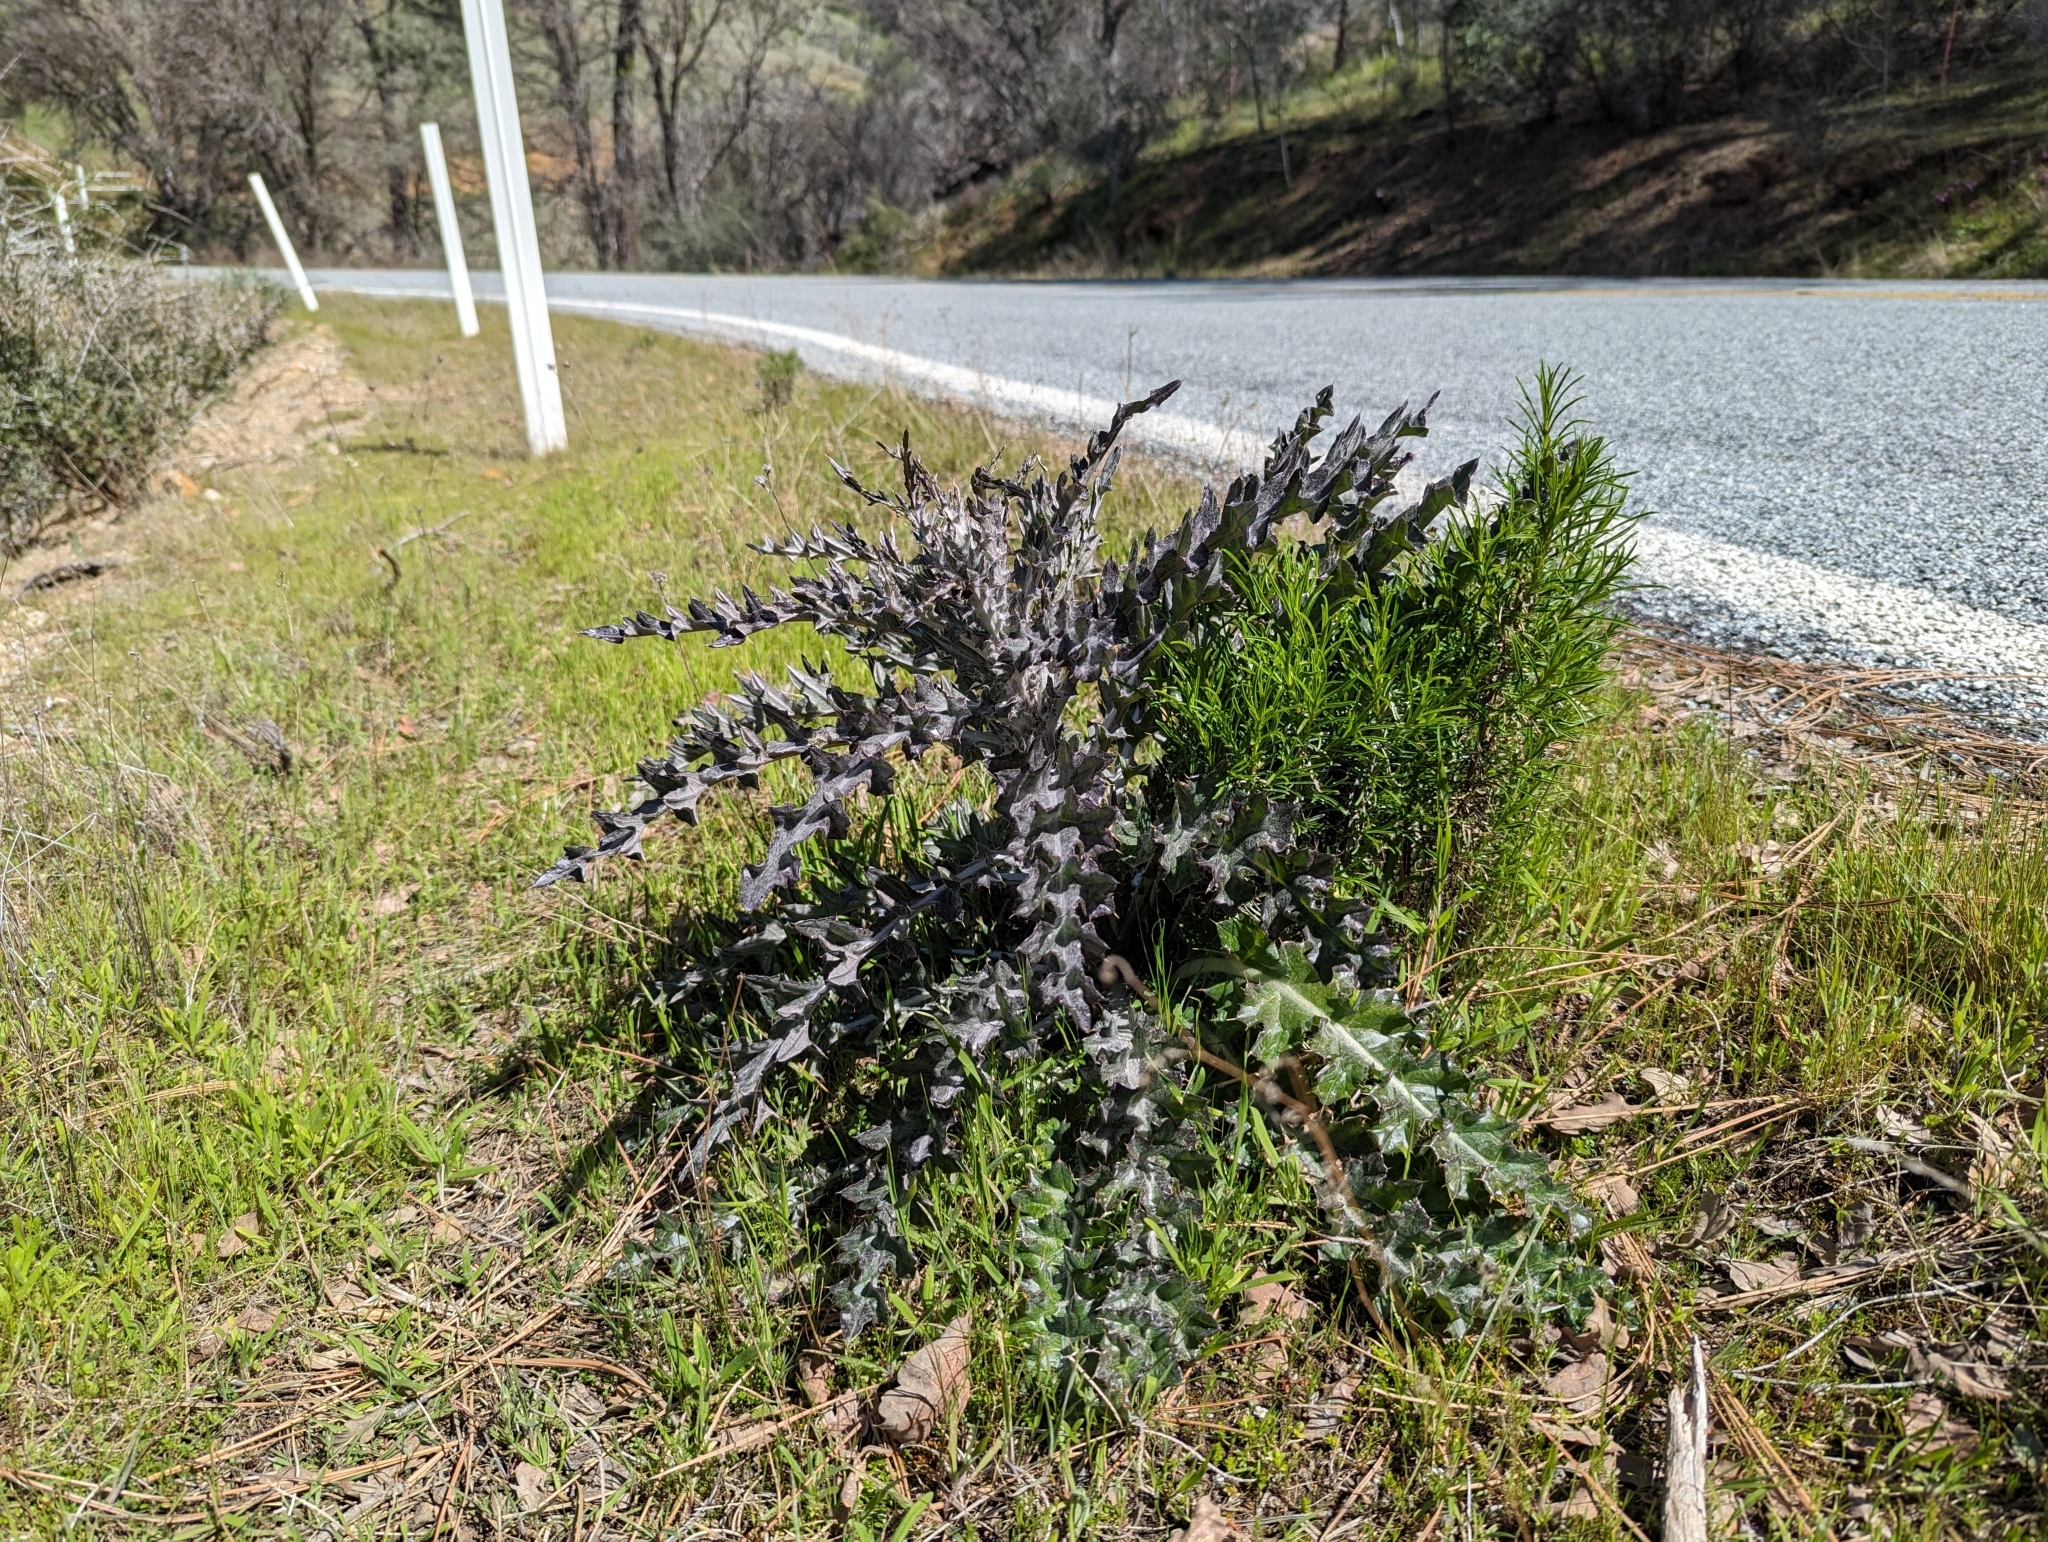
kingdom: Plantae
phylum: Tracheophyta
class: Magnoliopsida
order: Asterales
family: Asteraceae
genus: Cirsium
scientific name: Cirsium occidentale
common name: Western thistle
